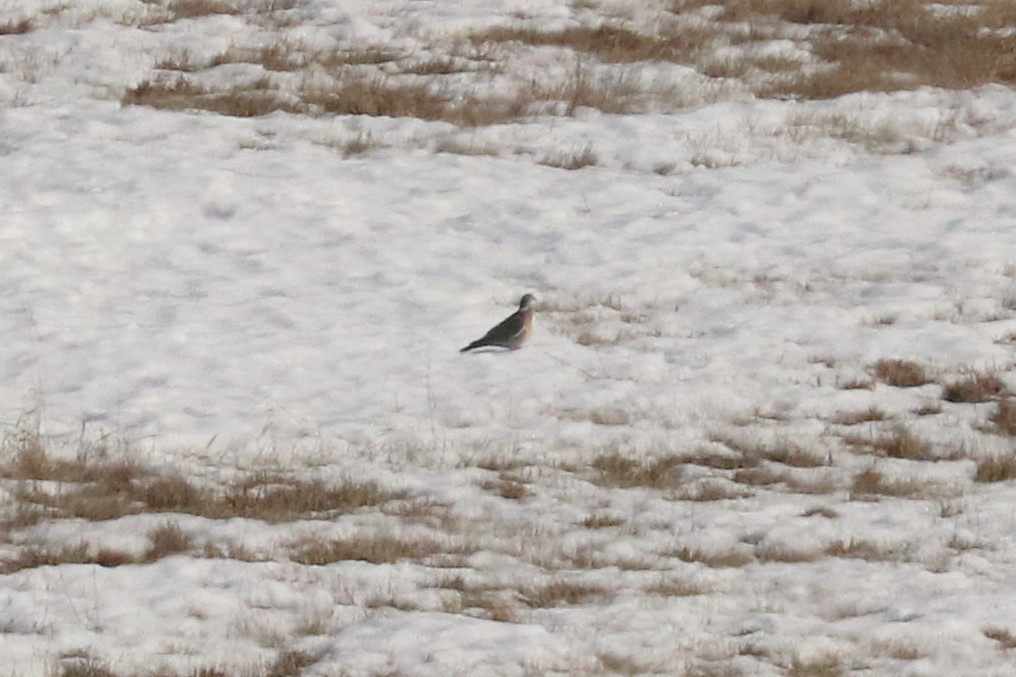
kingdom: Animalia
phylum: Chordata
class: Aves
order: Columbiformes
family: Columbidae
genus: Columba
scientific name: Columba palumbus
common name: Common wood pigeon
